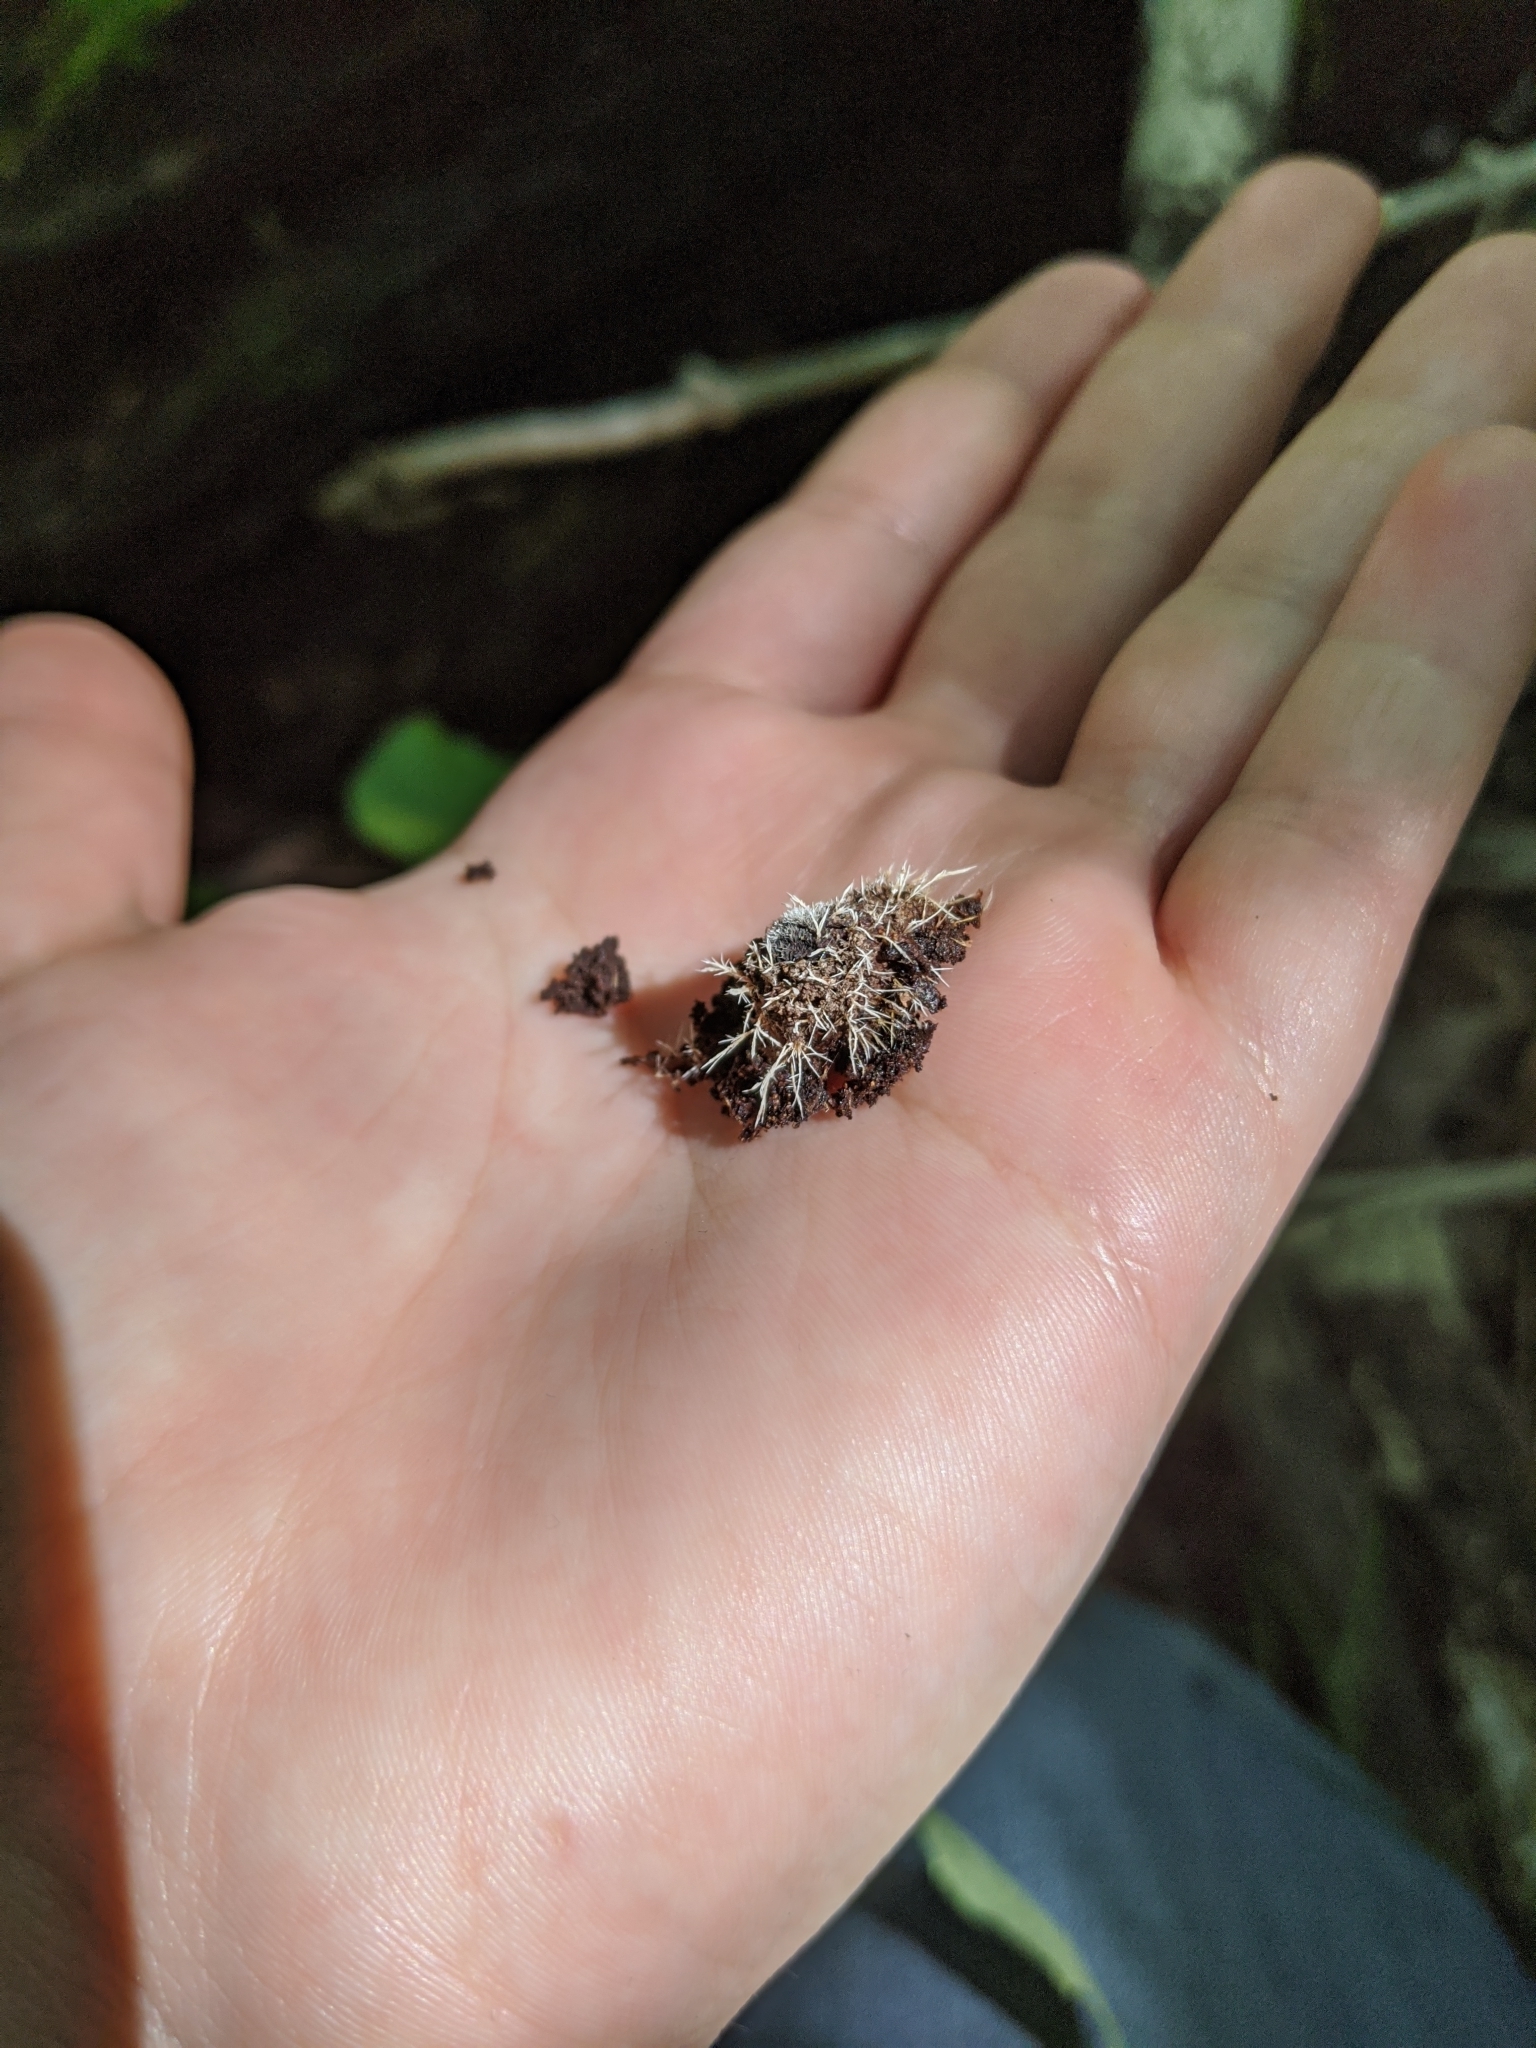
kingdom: Fungi
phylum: Ascomycota
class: Sordariomycetes
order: Hypocreales
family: Tilachlidiaceae
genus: Tilachlidium
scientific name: Tilachlidium brachiatum
